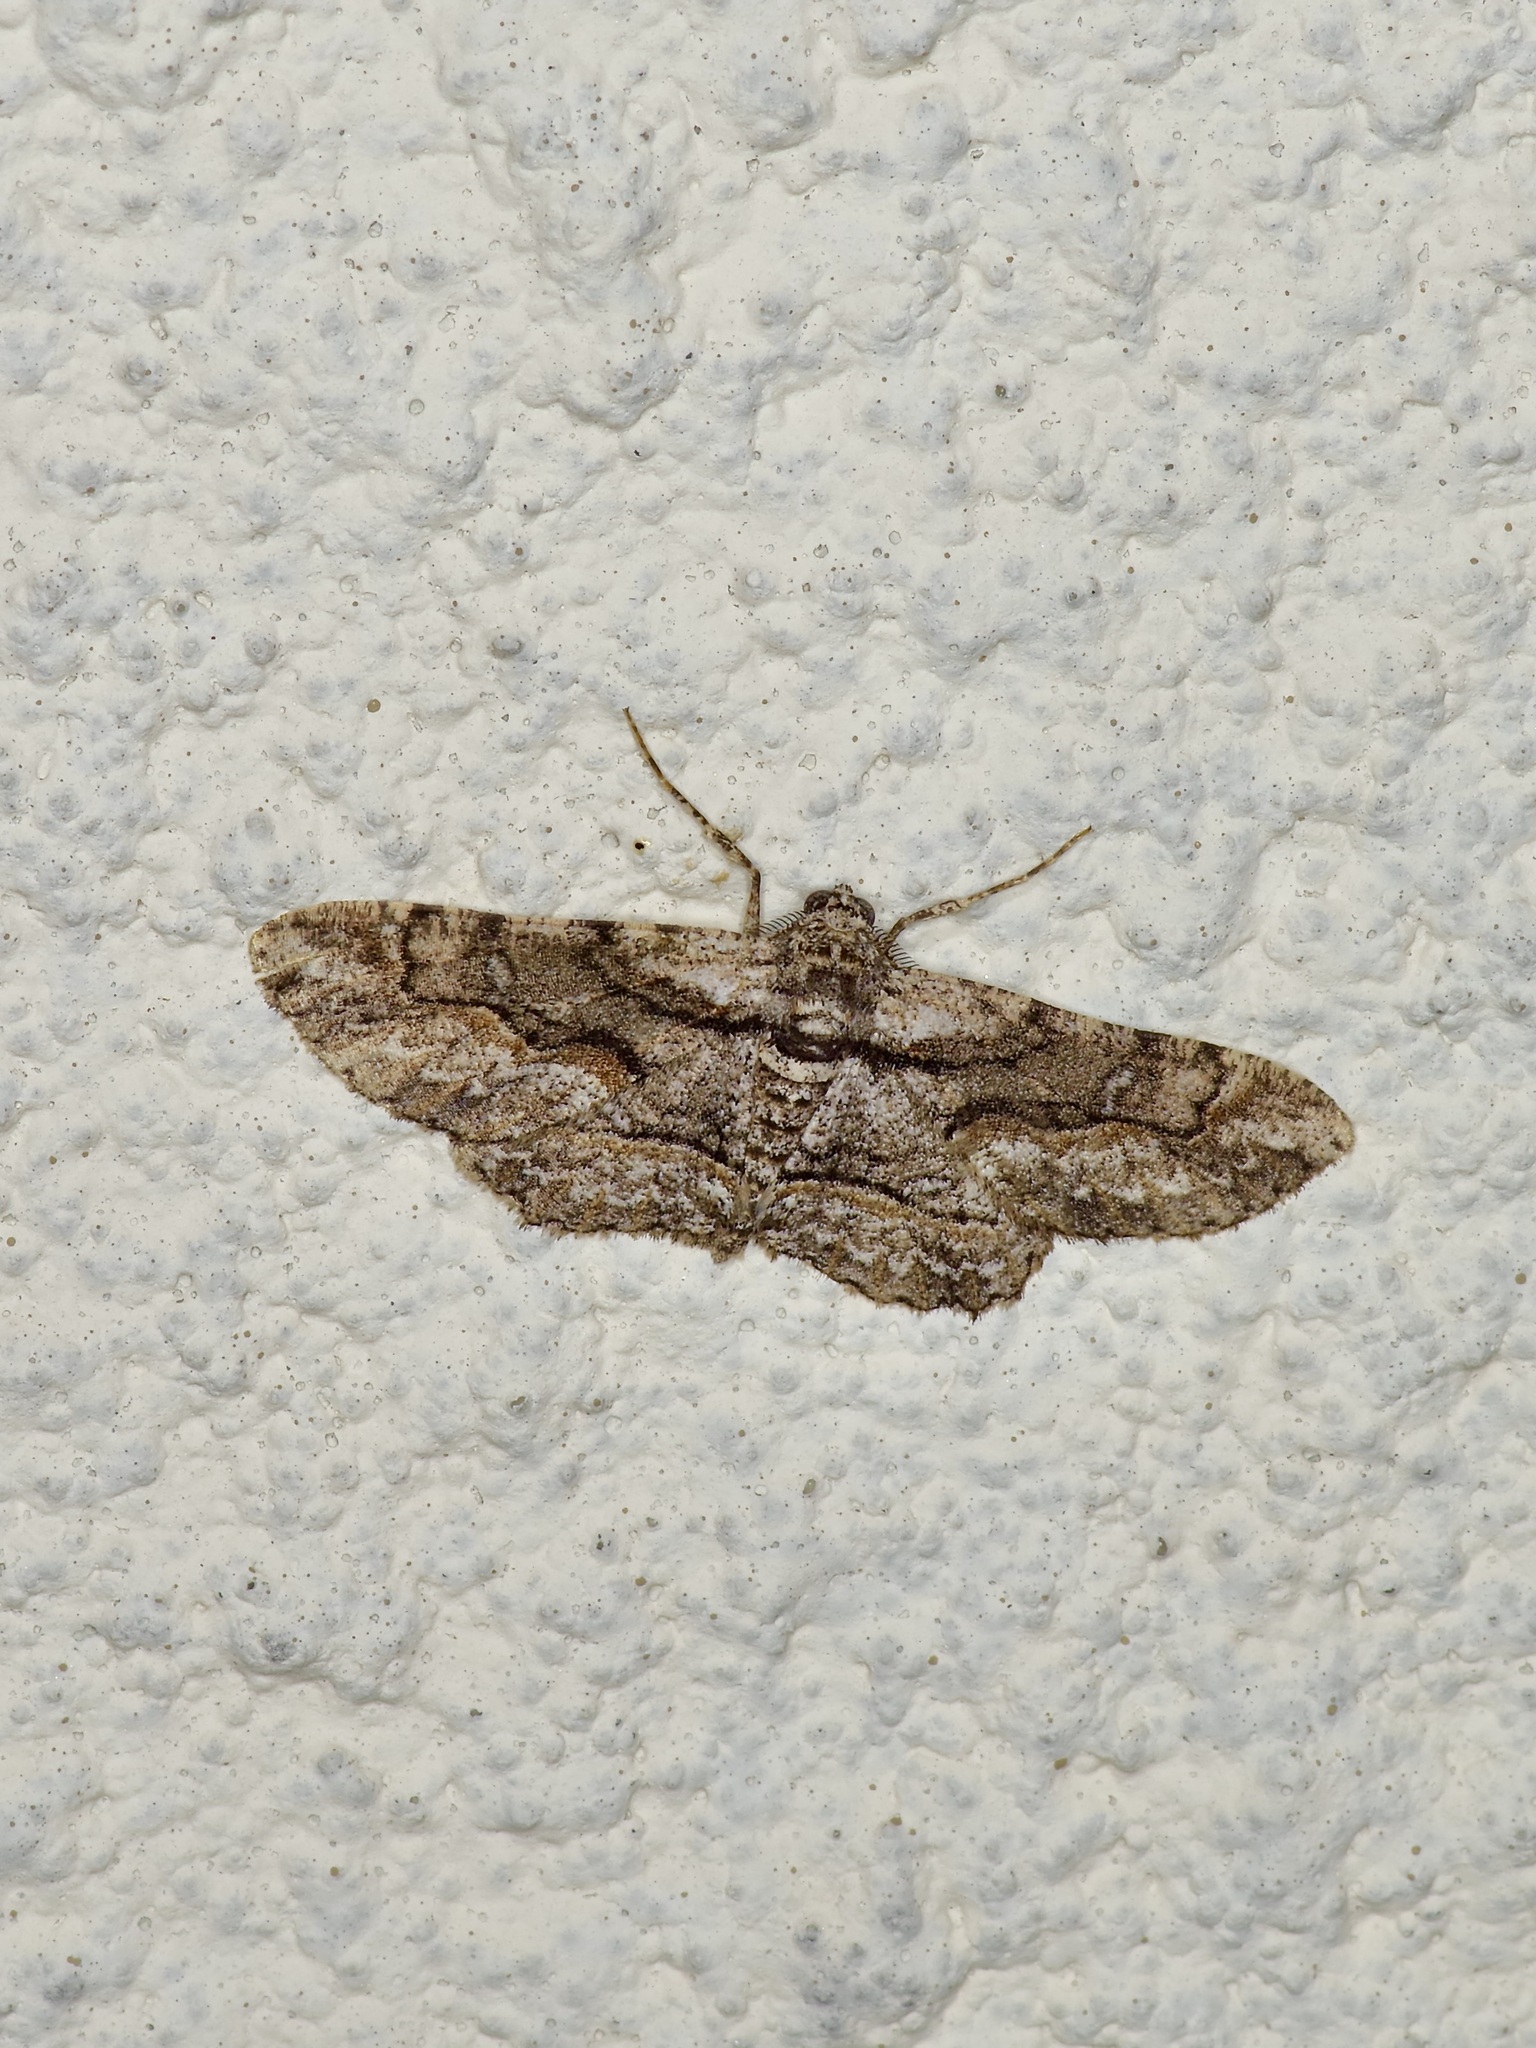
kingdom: Animalia
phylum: Arthropoda
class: Insecta
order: Lepidoptera
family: Geometridae
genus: Iridopsis
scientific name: Iridopsis defectaria
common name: Brown-shaded gray
